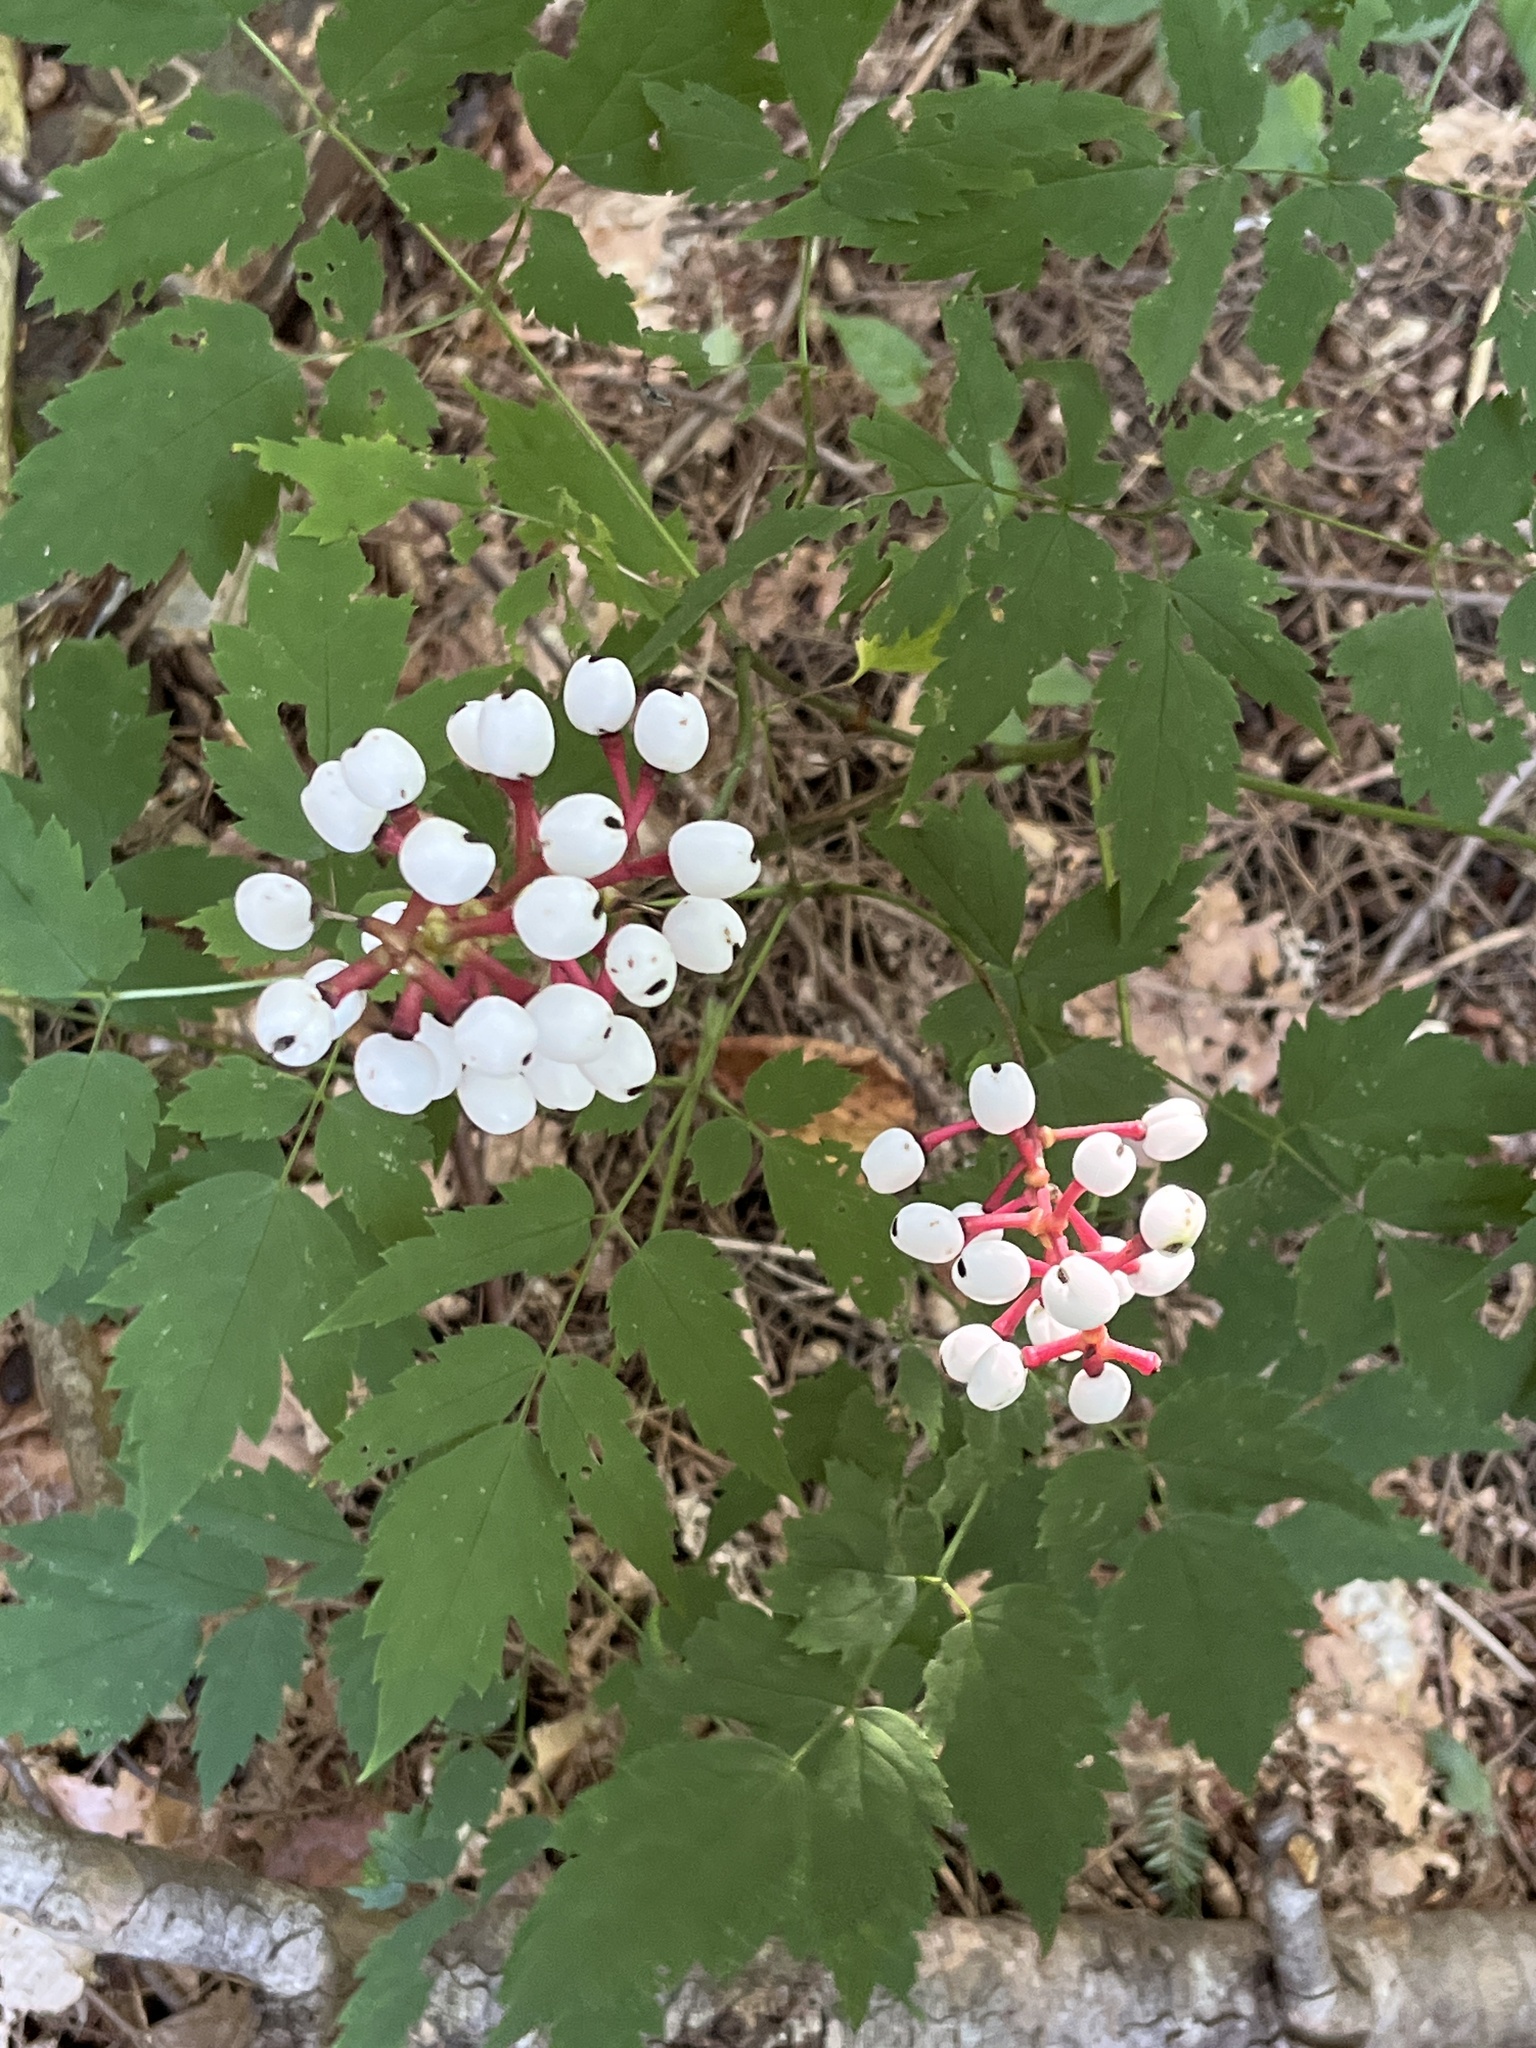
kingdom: Plantae
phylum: Tracheophyta
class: Magnoliopsida
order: Ranunculales
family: Ranunculaceae
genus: Actaea
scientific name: Actaea pachypoda
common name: Doll's-eyes
